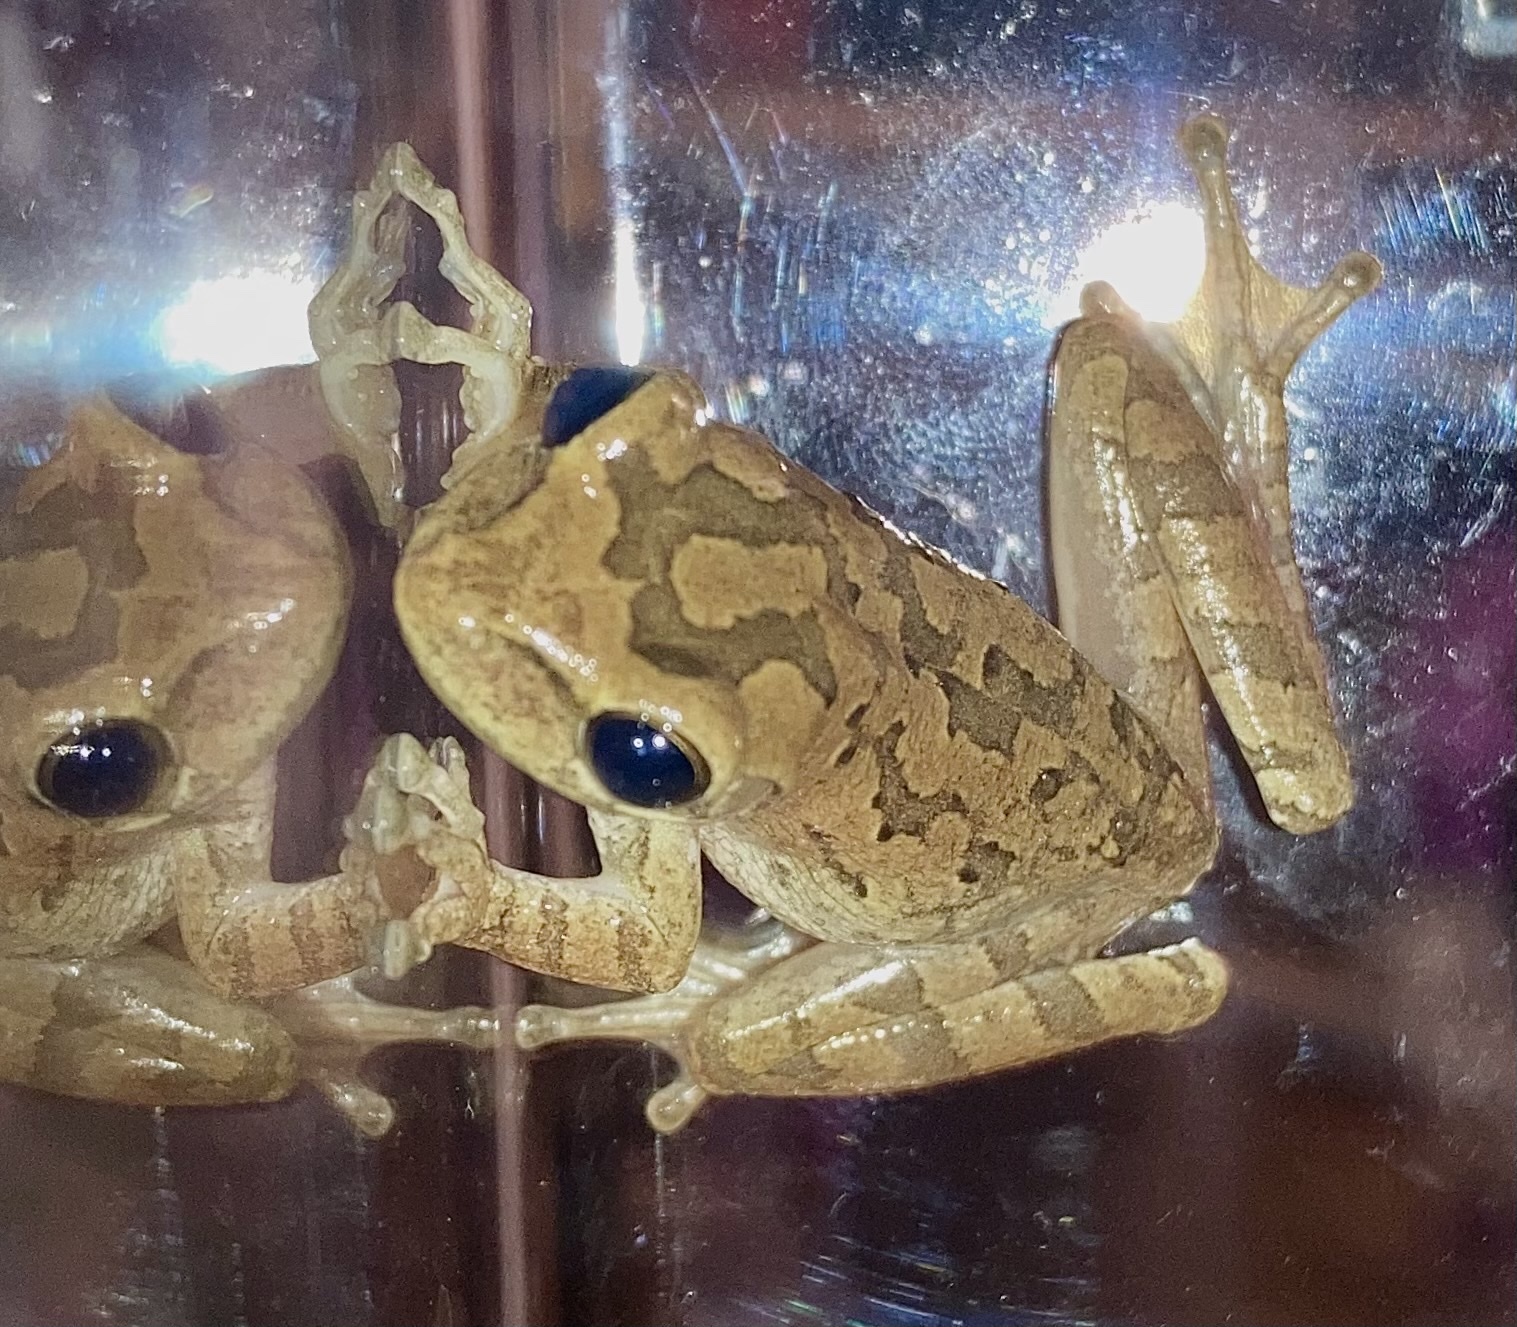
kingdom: Animalia
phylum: Chordata
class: Amphibia
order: Anura
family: Hylidae
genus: Osteopilus
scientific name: Osteopilus septentrionalis
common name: Cuban treefrog
